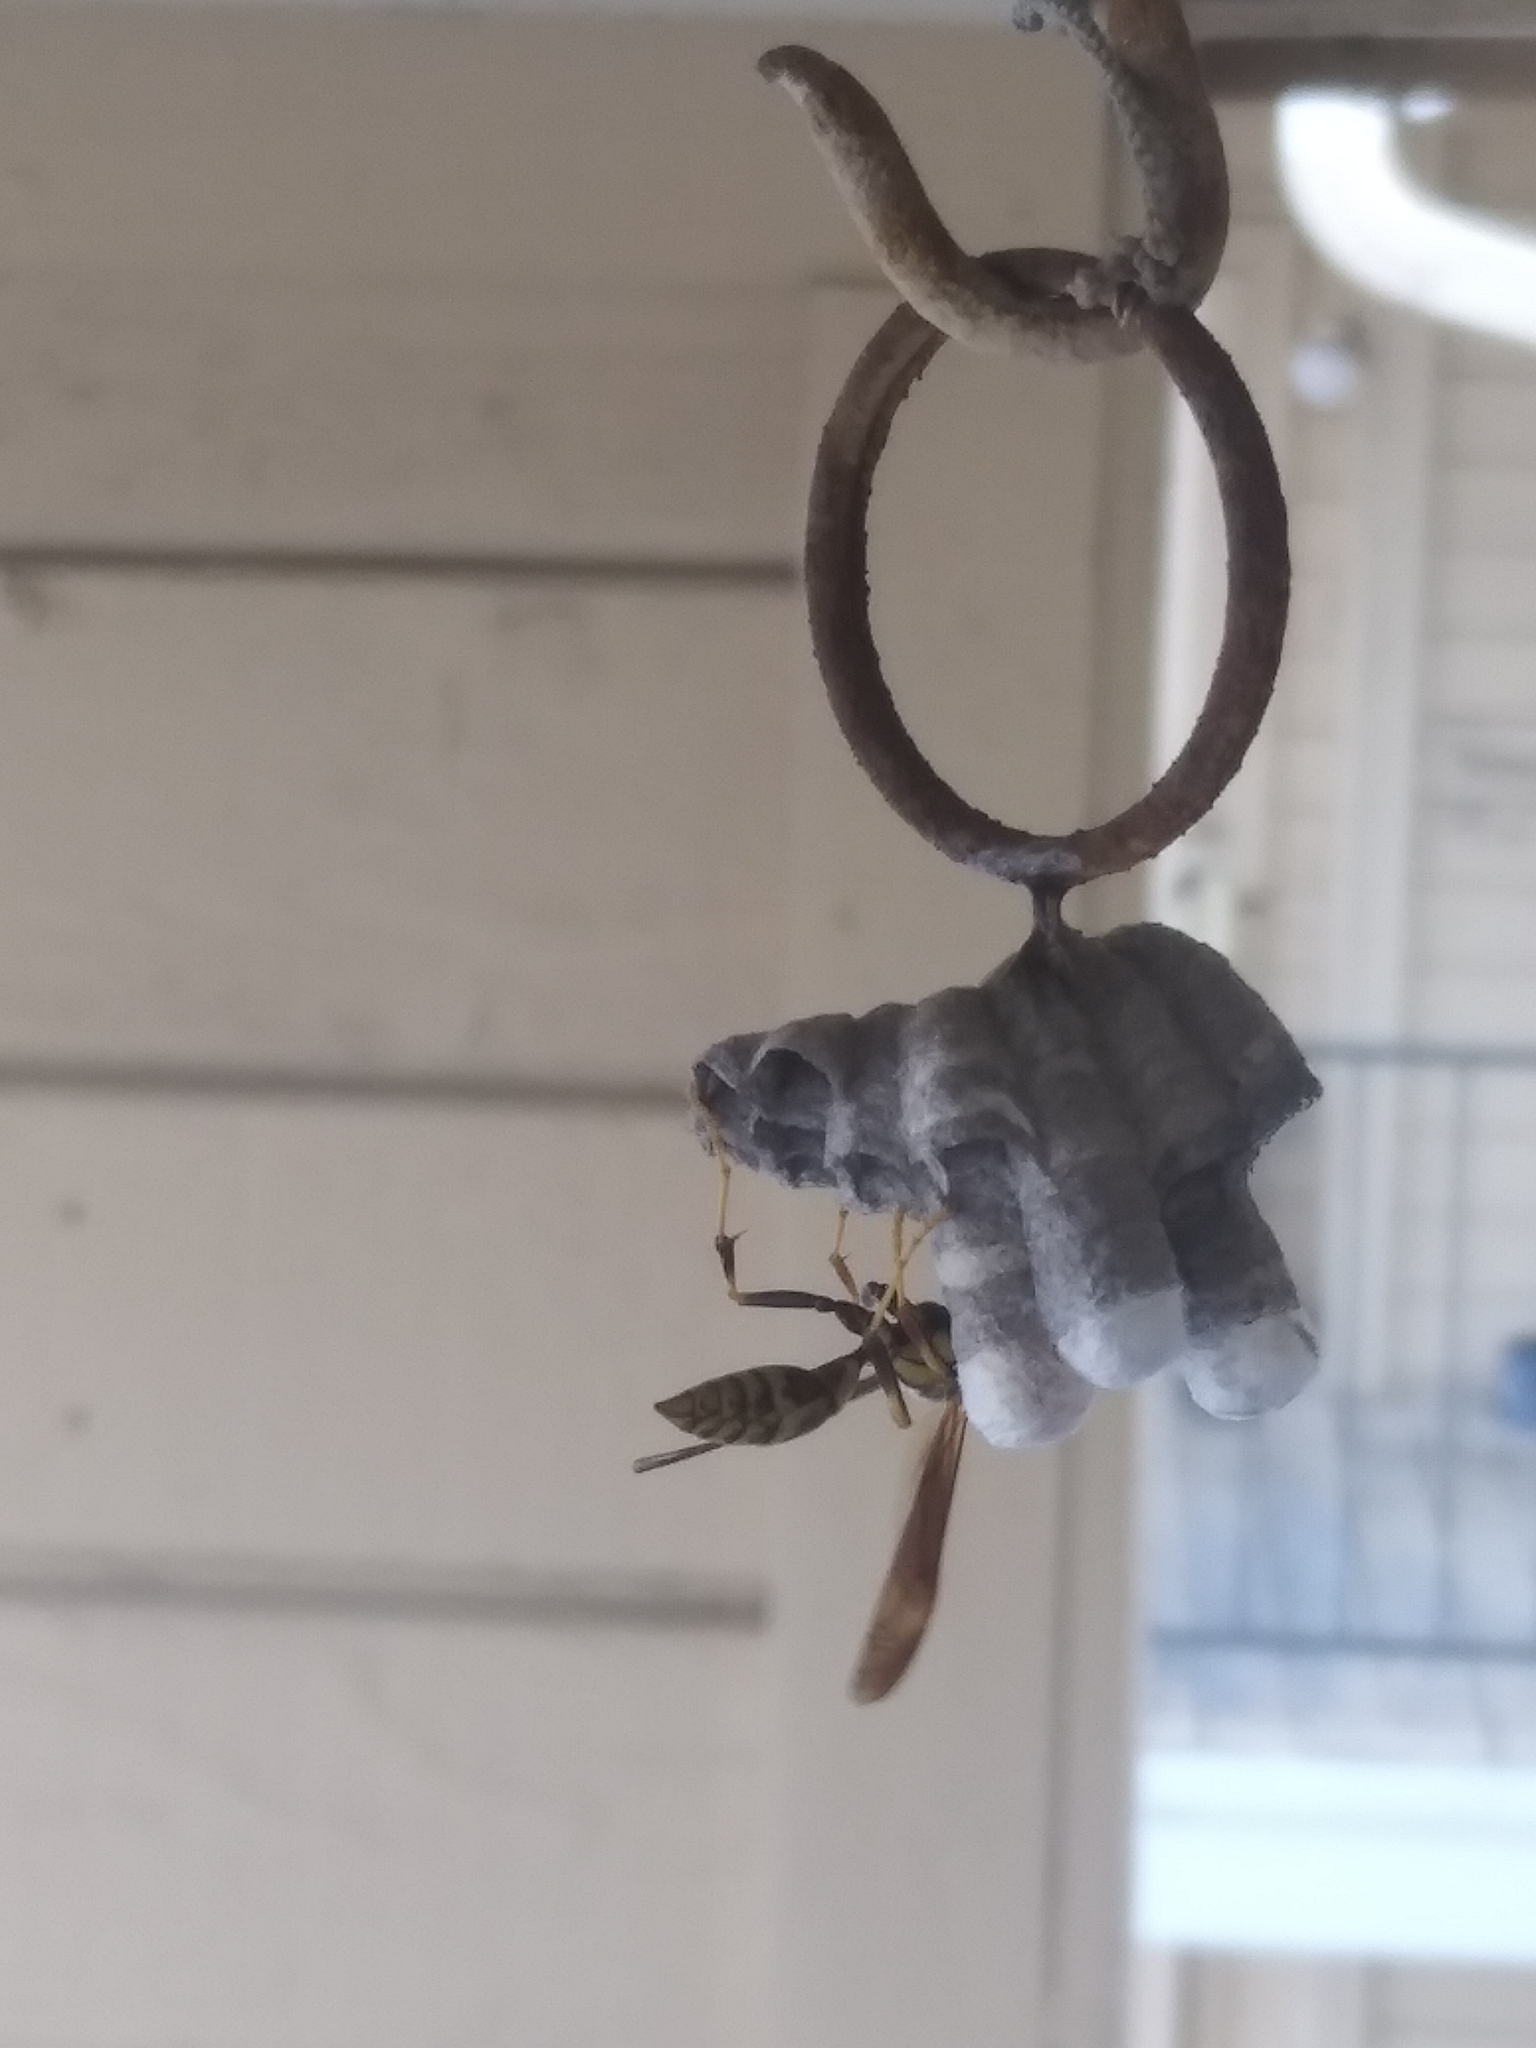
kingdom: Animalia
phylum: Arthropoda
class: Insecta
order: Hymenoptera
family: Eumenidae
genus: Polistes
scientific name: Polistes exclamans
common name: Paper wasp
